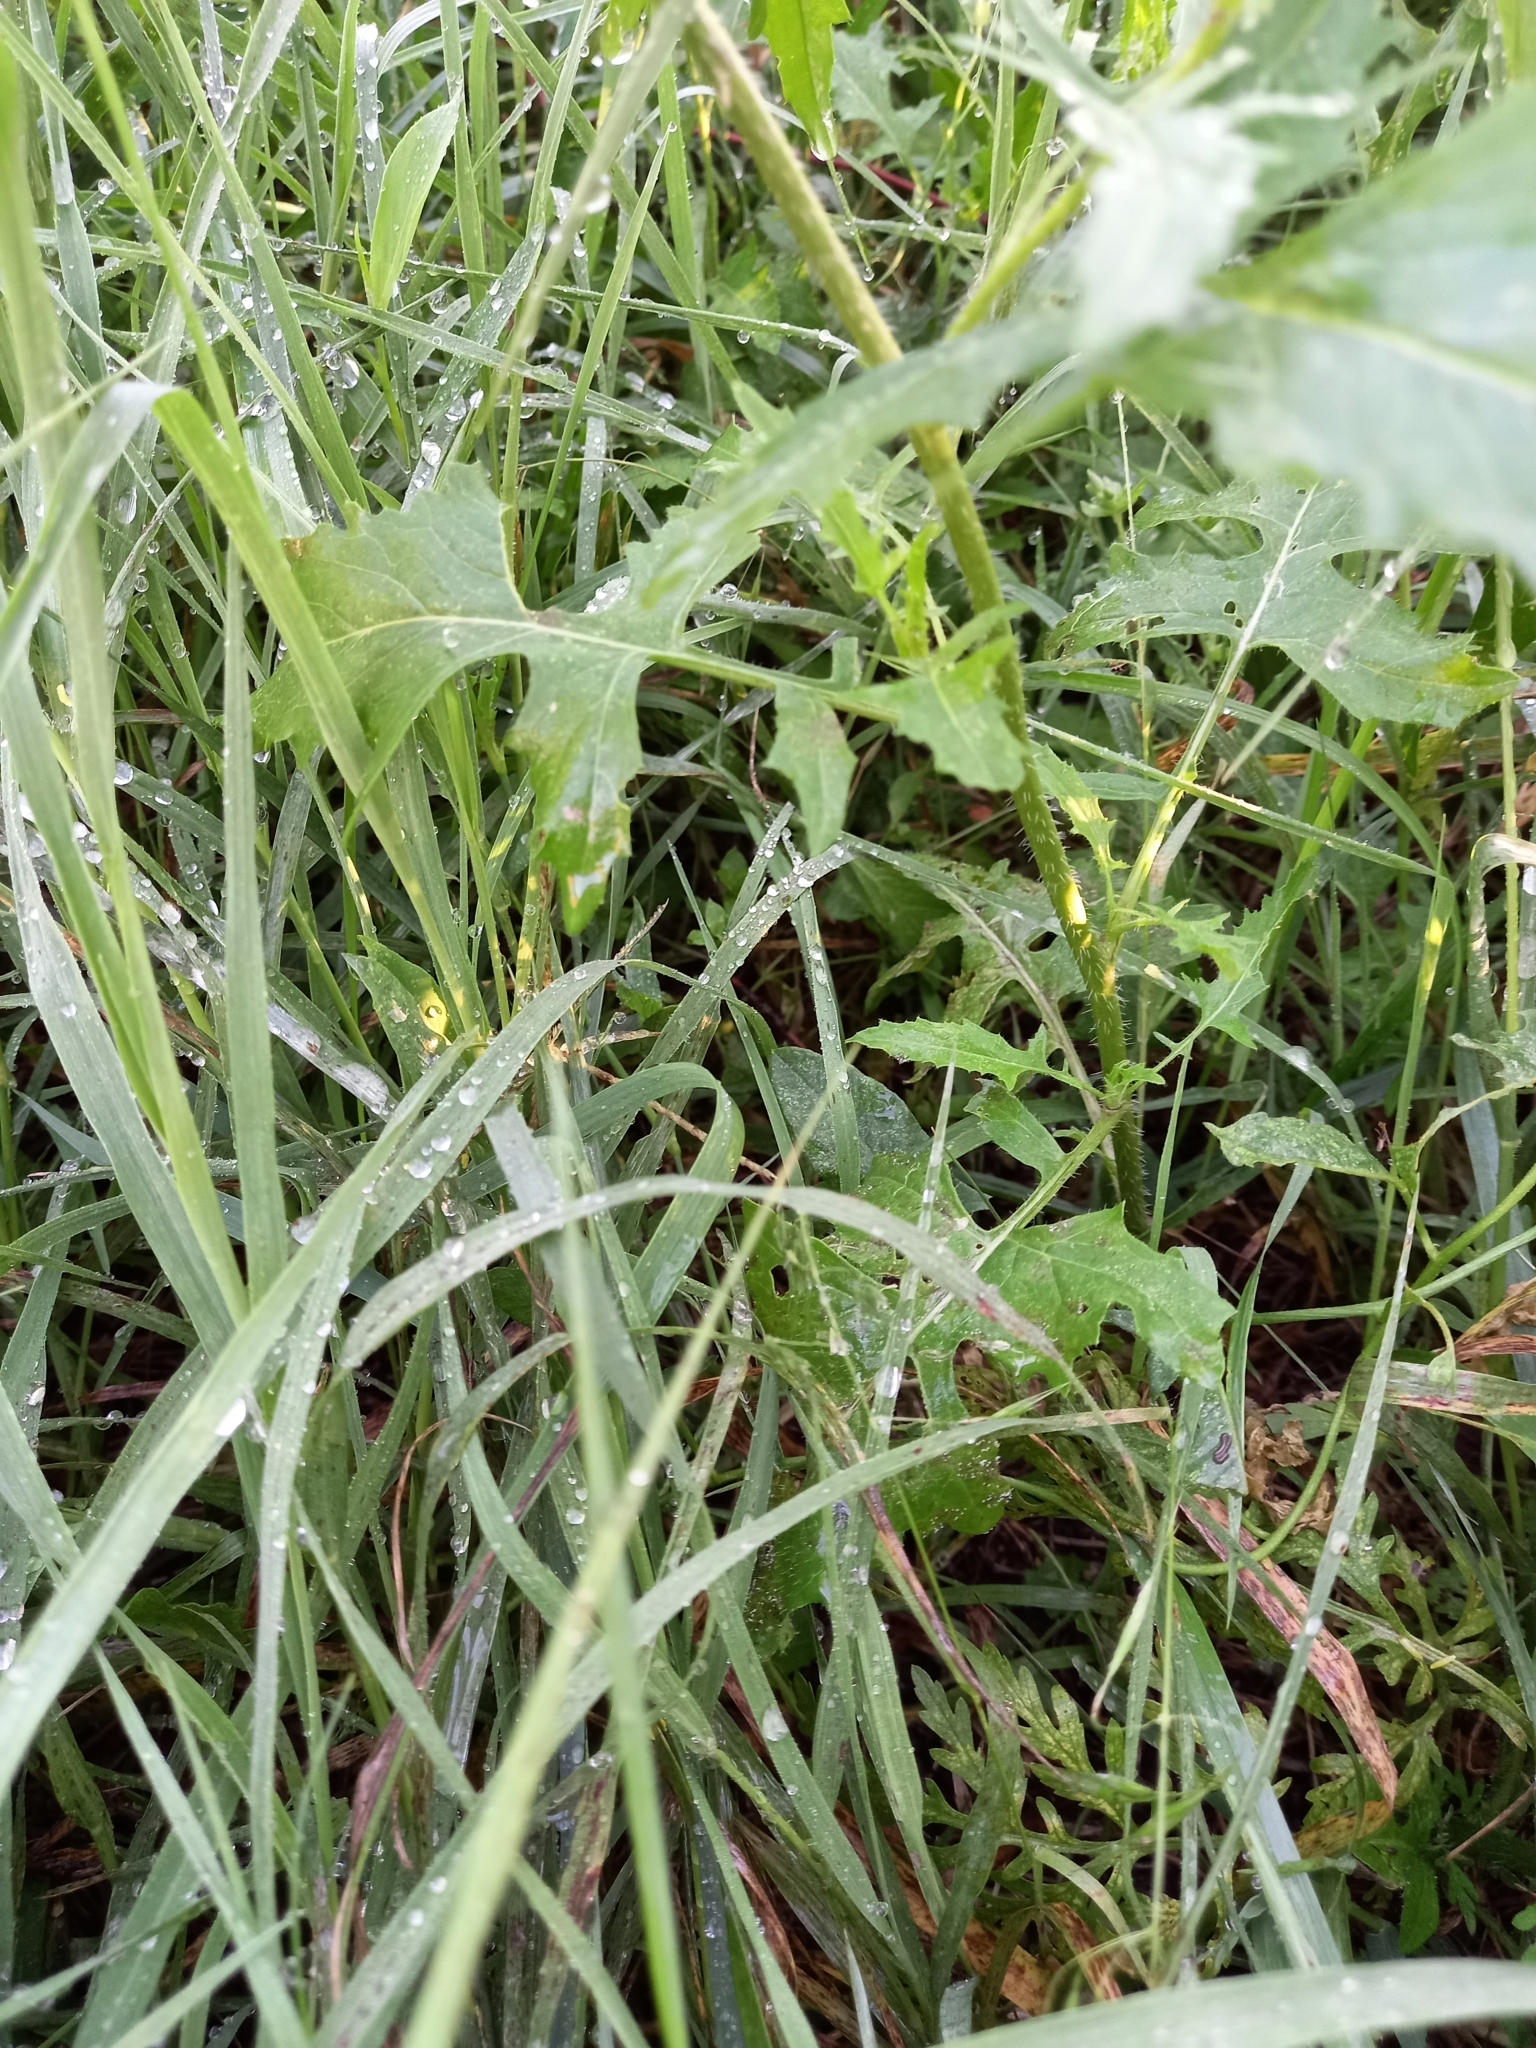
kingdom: Plantae
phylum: Tracheophyta
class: Magnoliopsida
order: Brassicales
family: Brassicaceae
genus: Sisymbrium
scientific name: Sisymbrium loeselii
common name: False london-rocket
